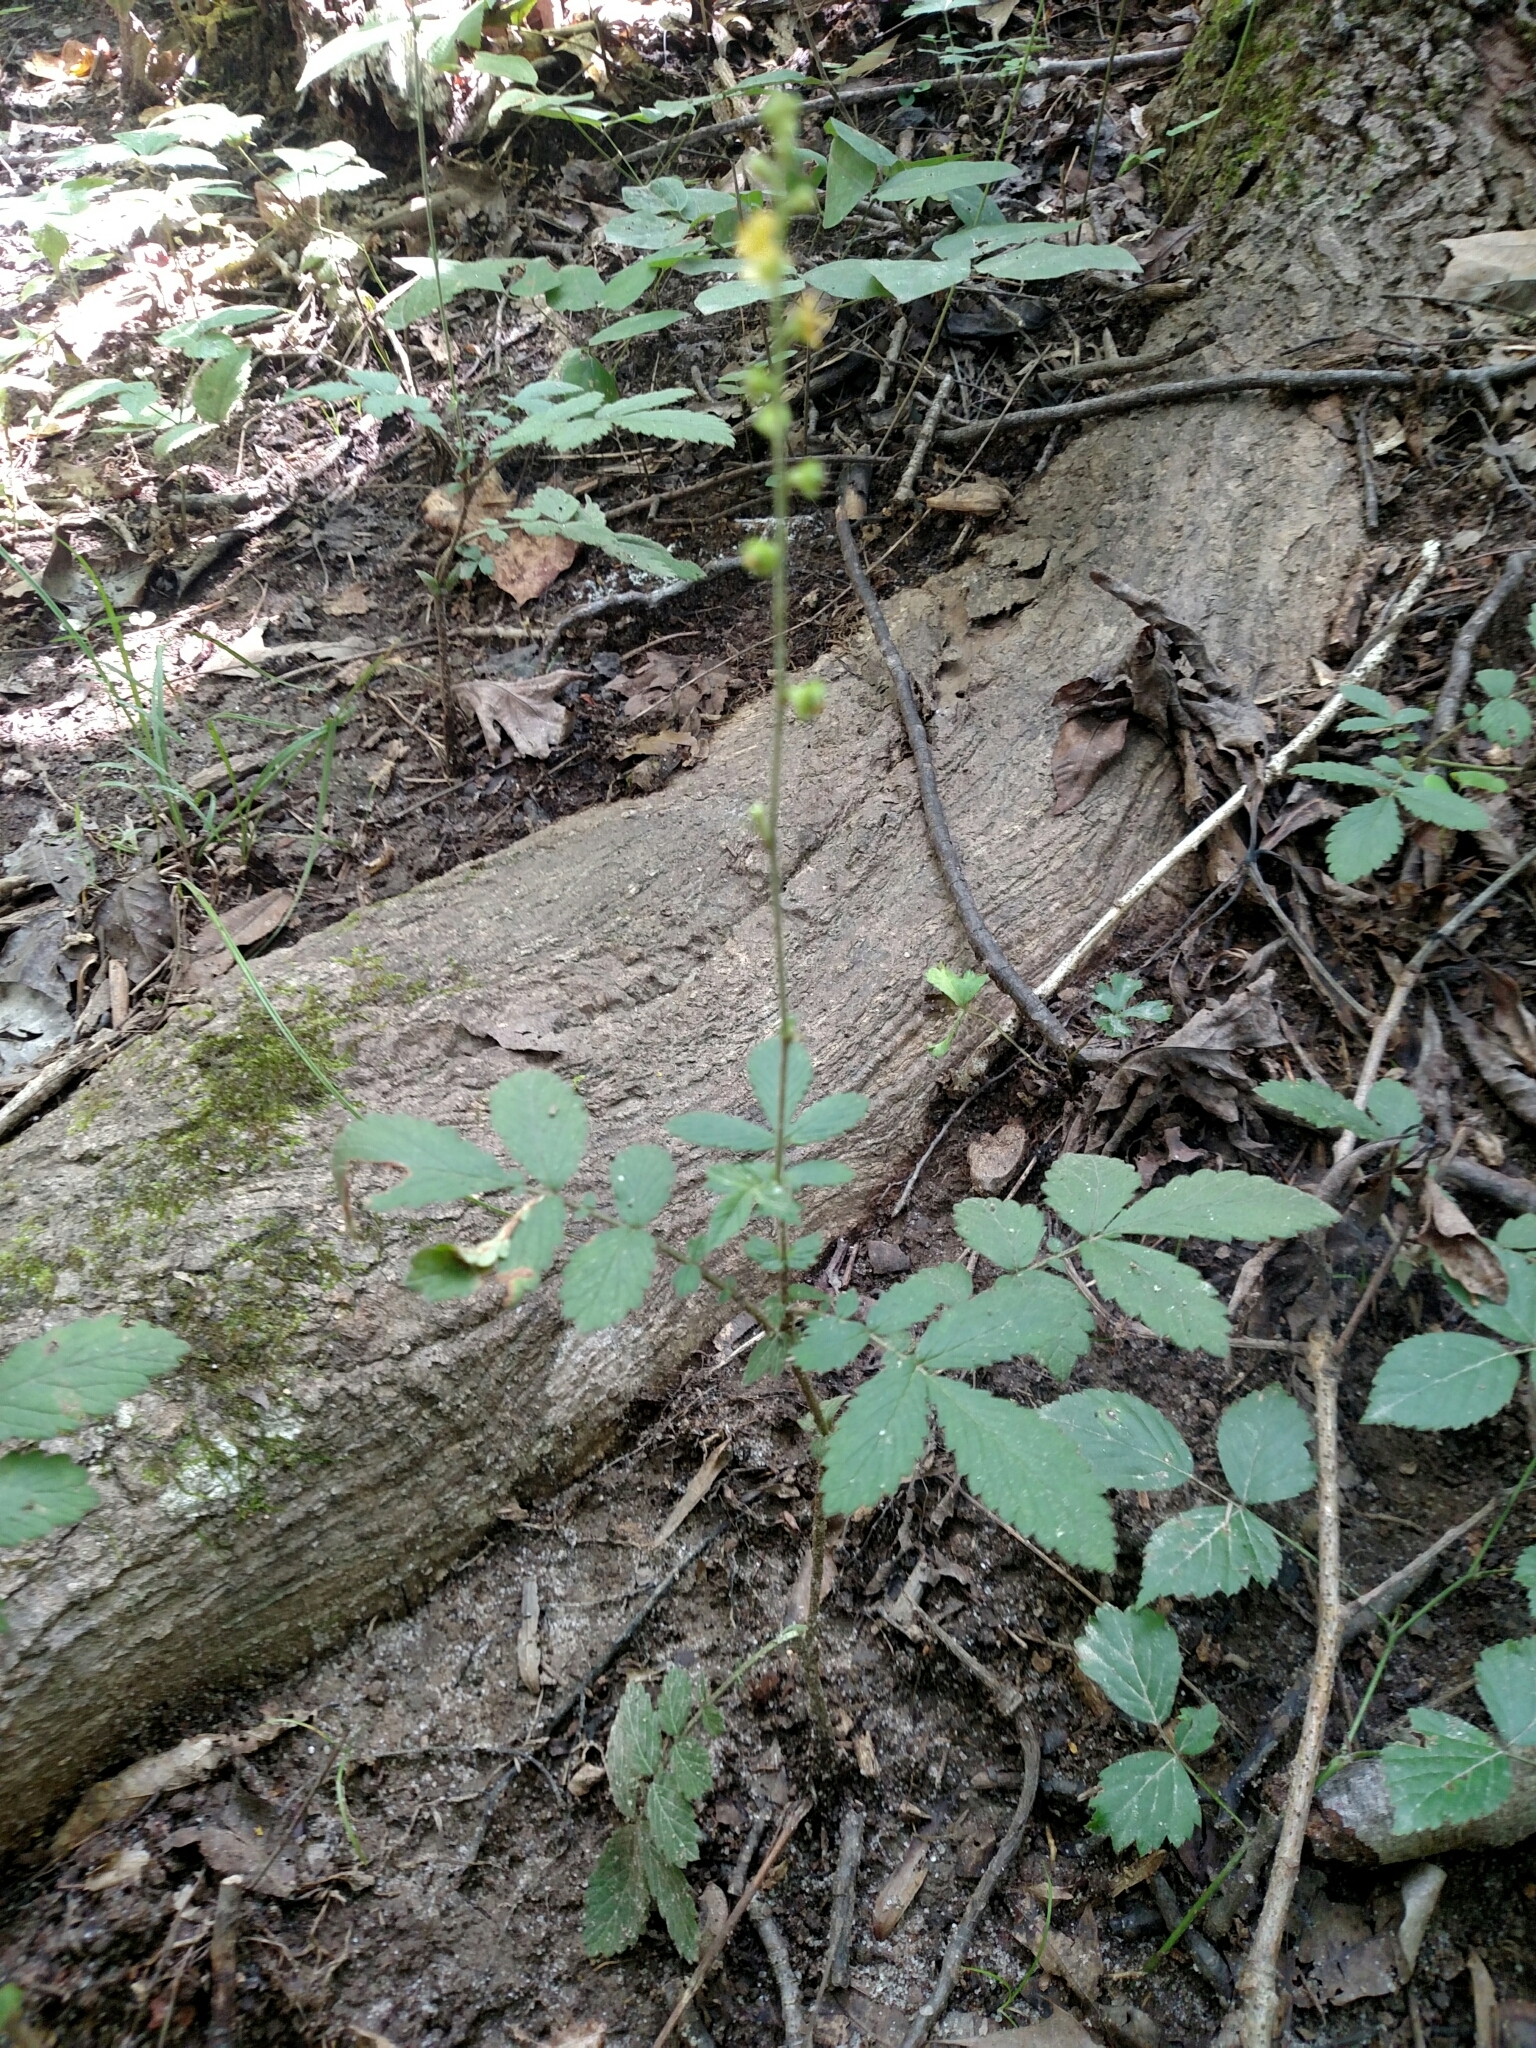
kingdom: Plantae
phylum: Tracheophyta
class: Magnoliopsida
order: Rosales
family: Rosaceae
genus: Agrimonia
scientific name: Agrimonia pubescens
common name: Downy agrimony
